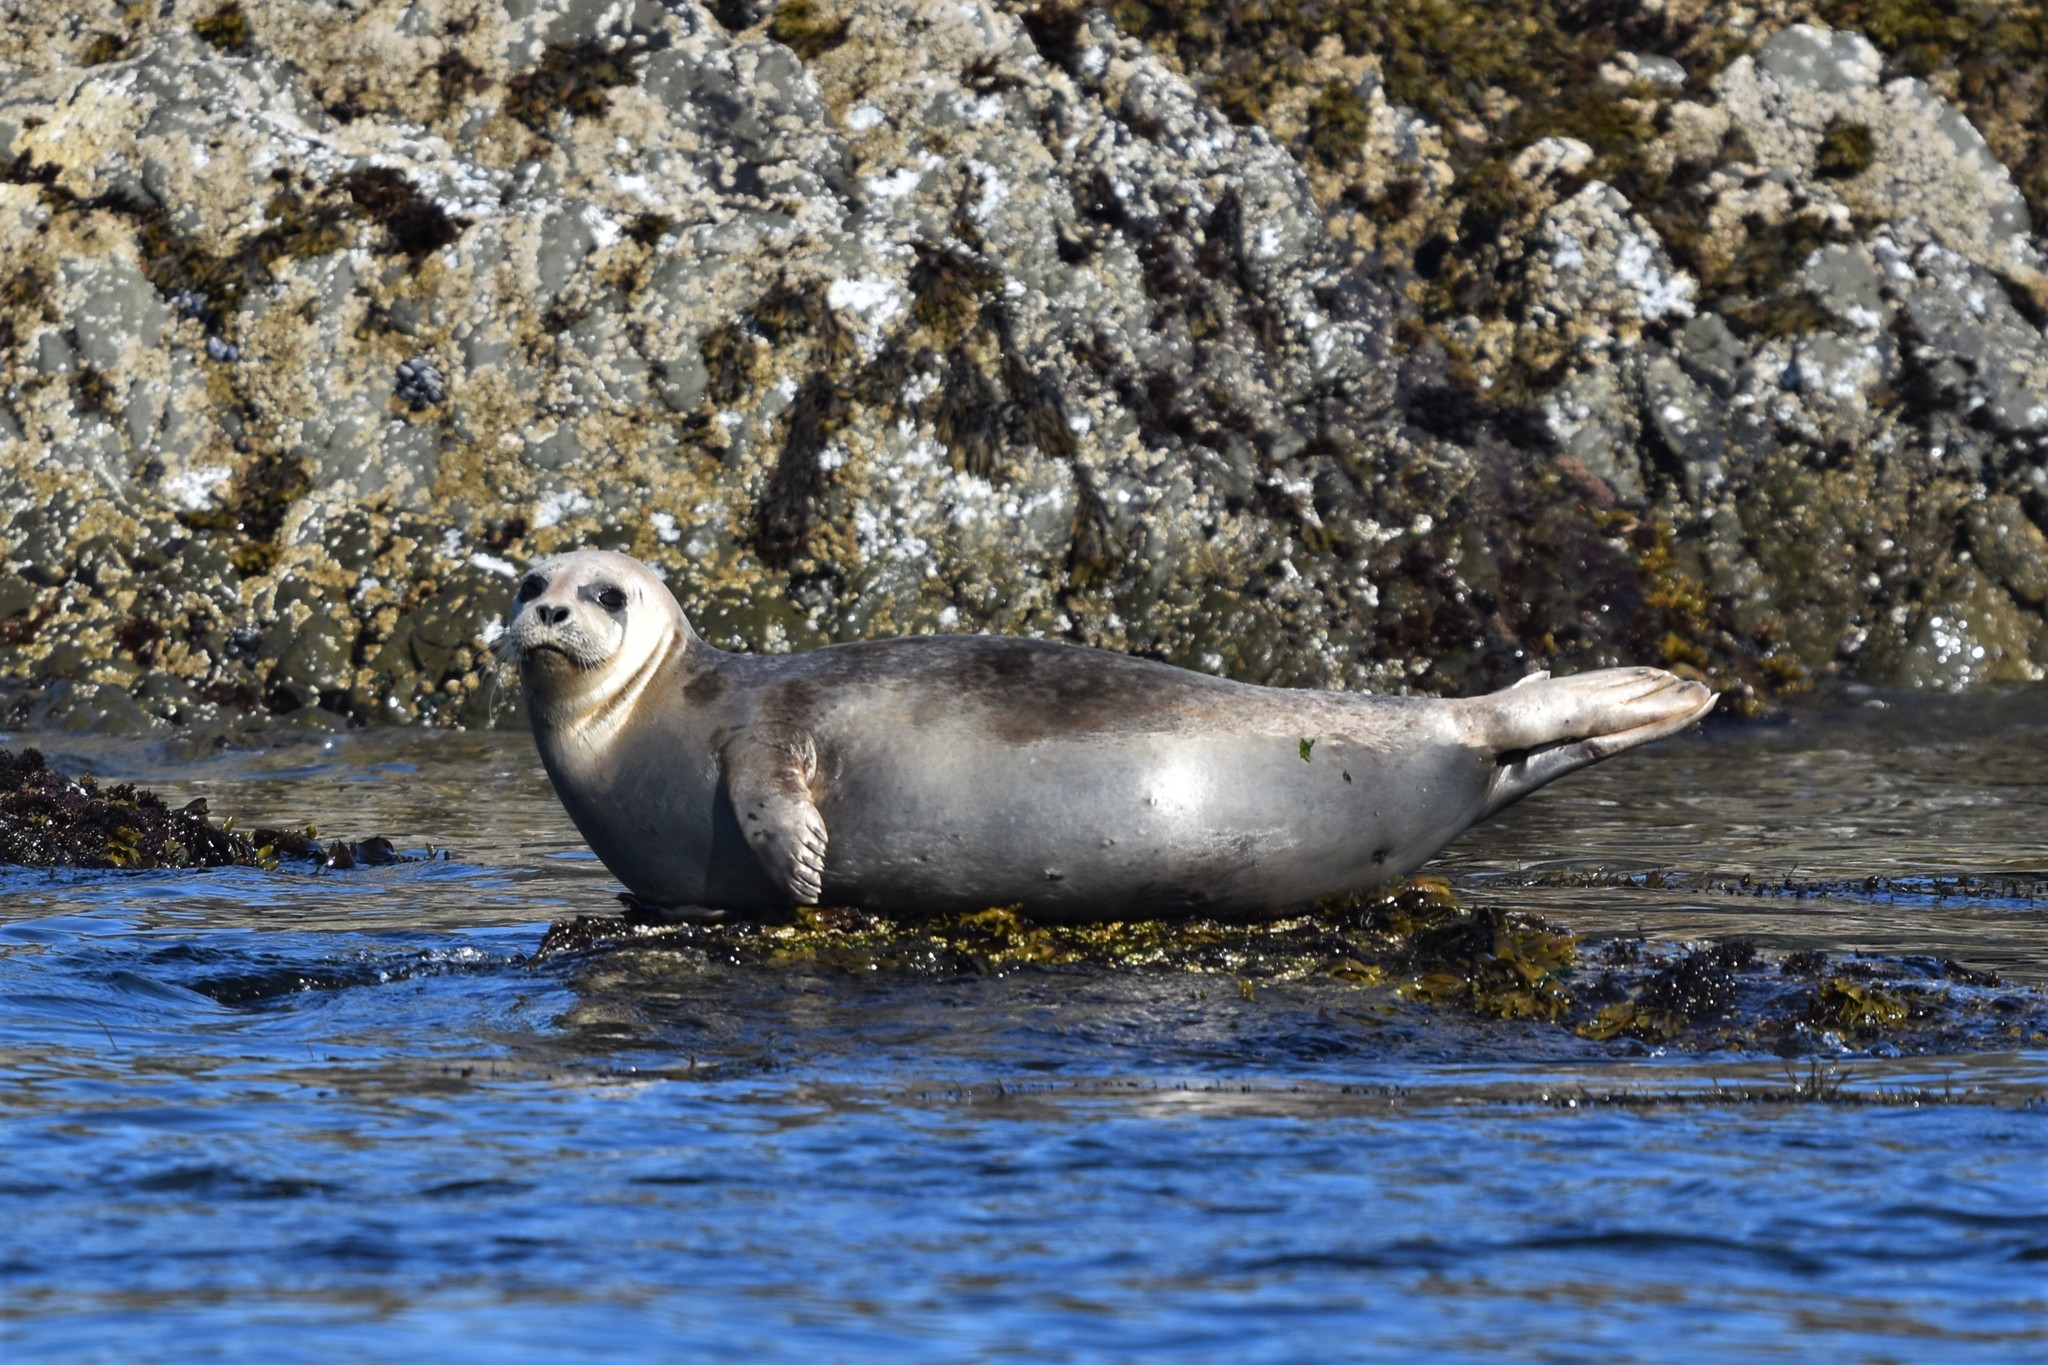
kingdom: Animalia
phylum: Chordata
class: Mammalia
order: Carnivora
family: Phocidae
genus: Phoca
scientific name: Phoca vitulina
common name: Harbor seal
